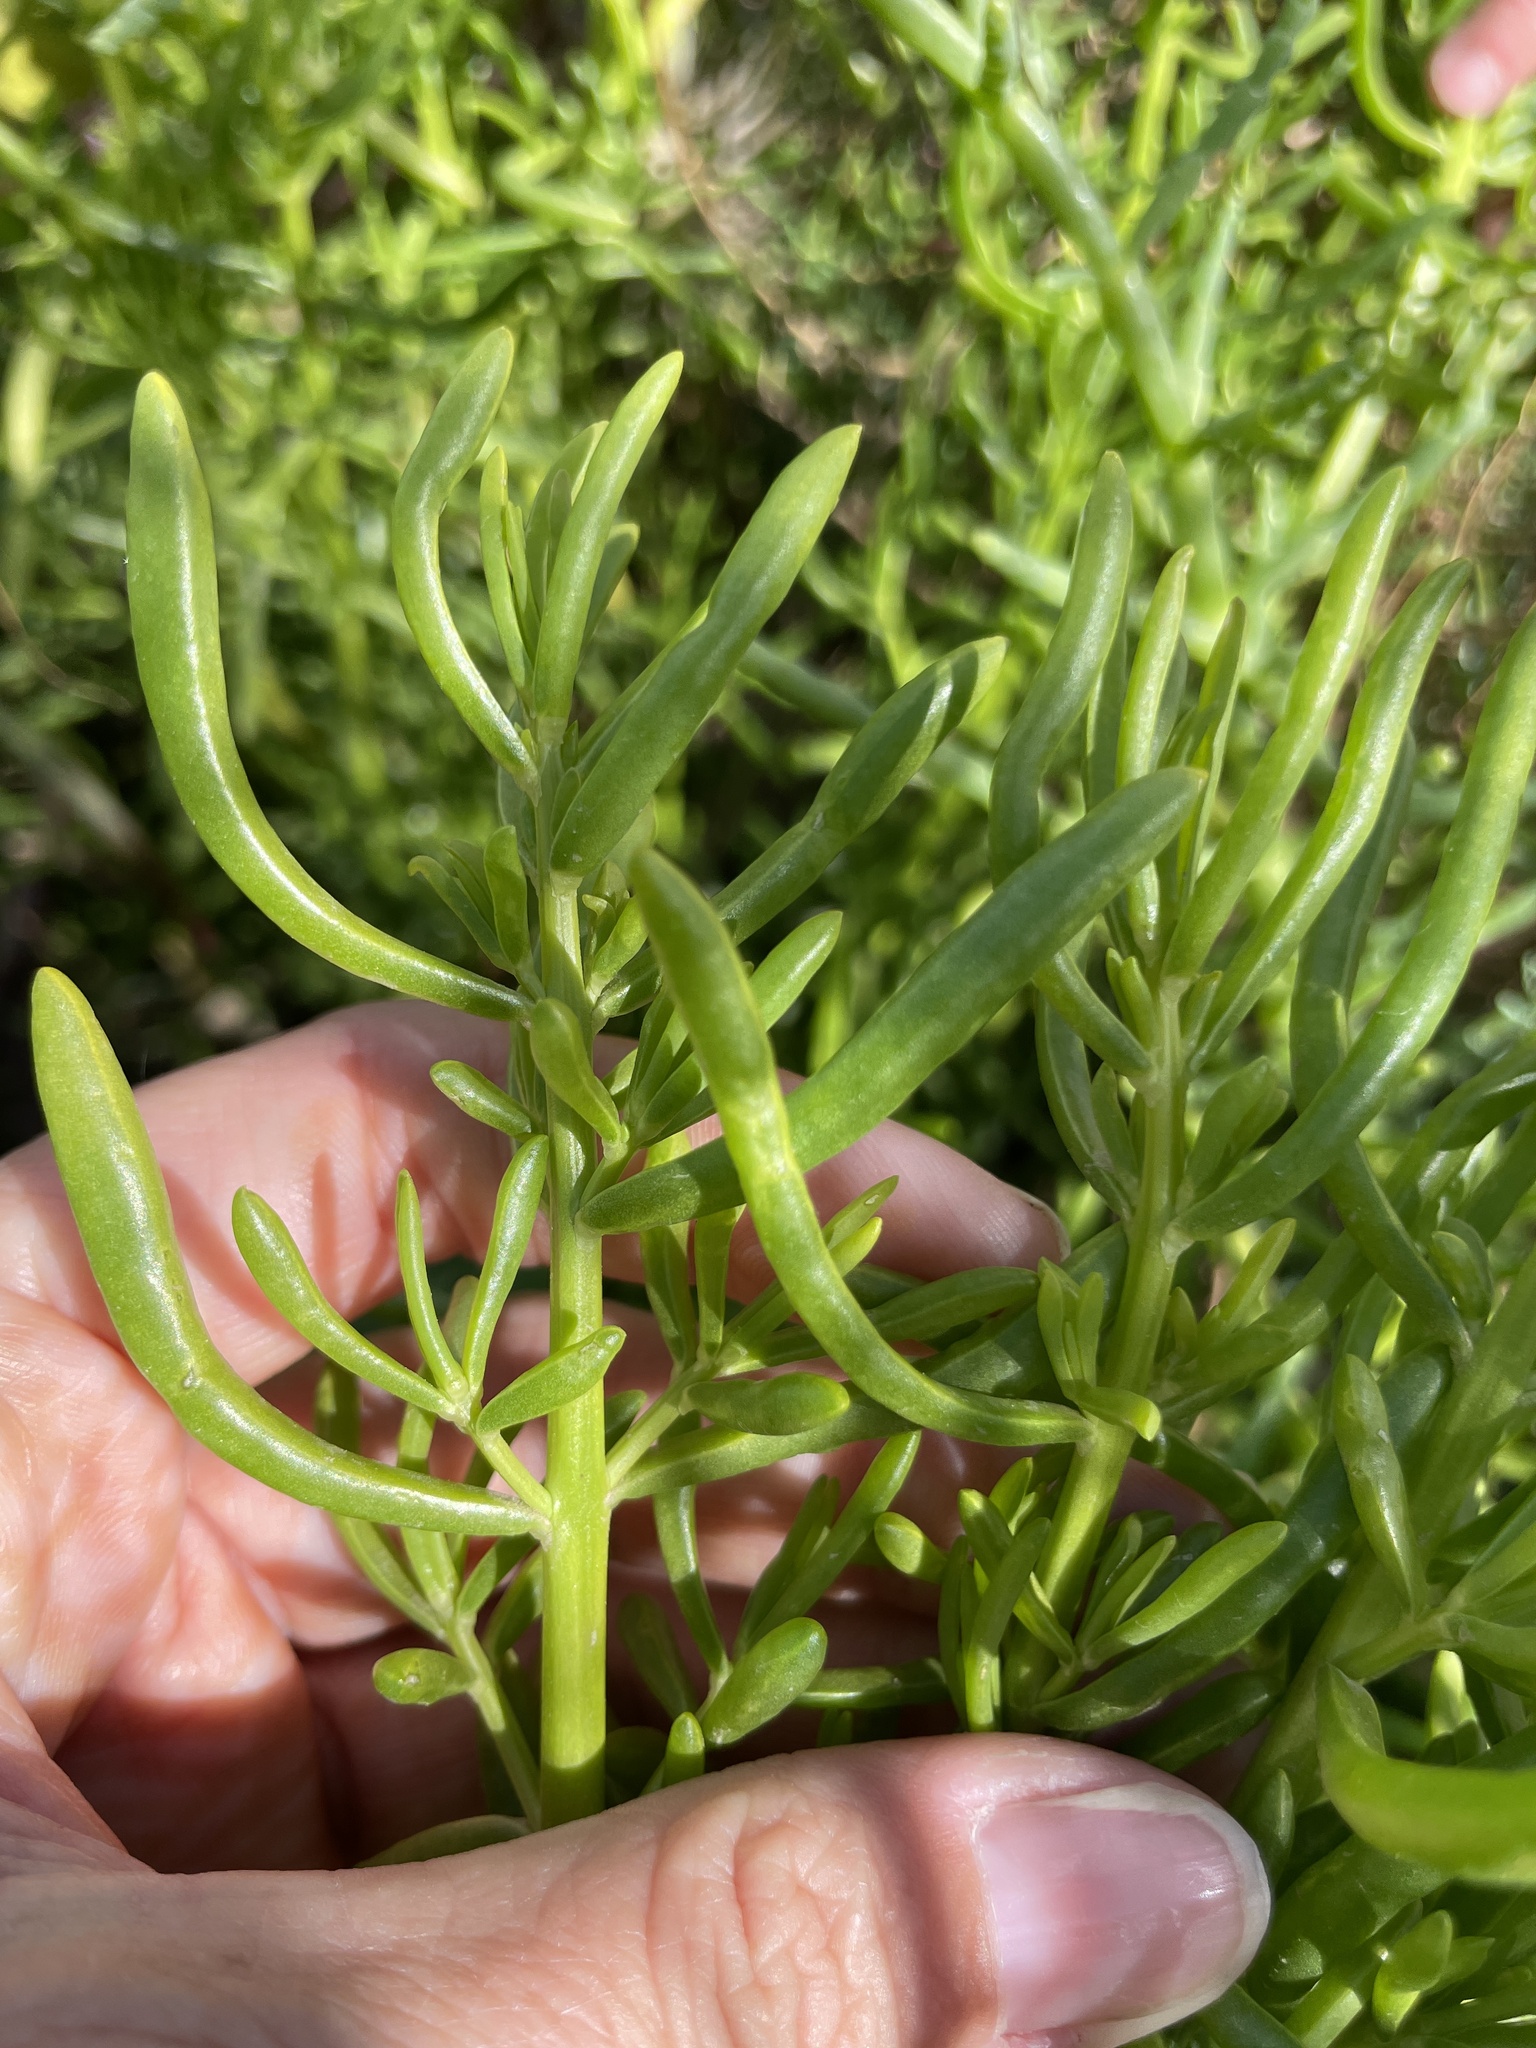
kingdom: Plantae
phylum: Tracheophyta
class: Magnoliopsida
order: Brassicales
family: Bataceae
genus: Batis
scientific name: Batis maritima
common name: Turtleweed
